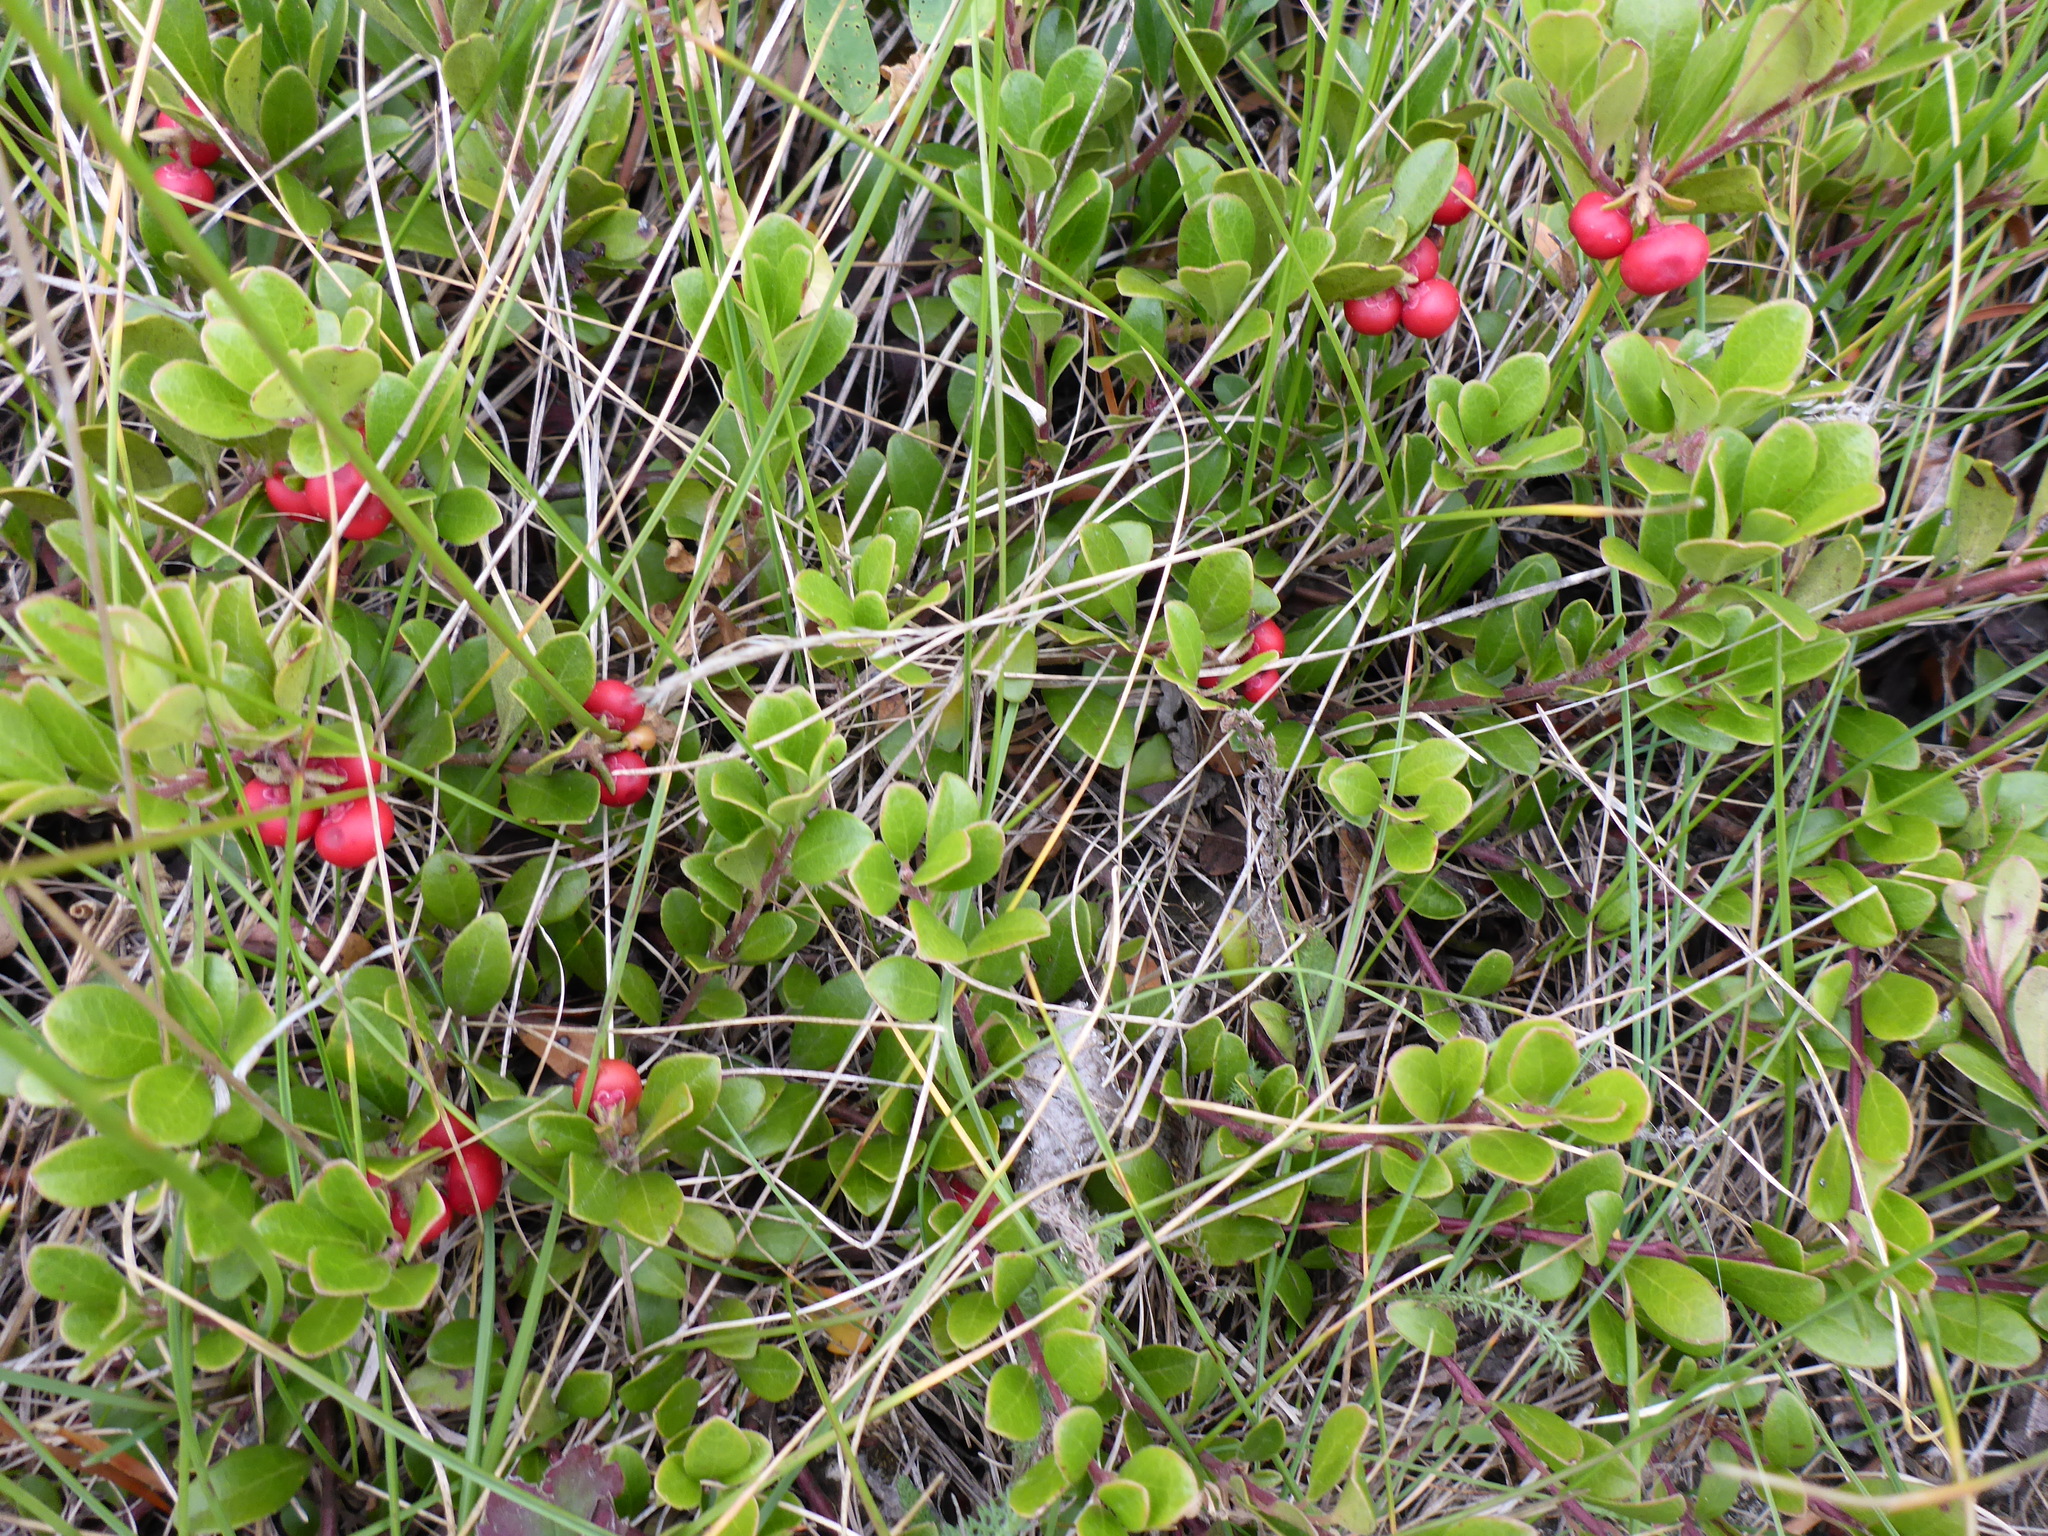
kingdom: Plantae
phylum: Tracheophyta
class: Magnoliopsida
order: Ericales
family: Ericaceae
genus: Arctostaphylos
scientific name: Arctostaphylos uva-ursi
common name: Bearberry
